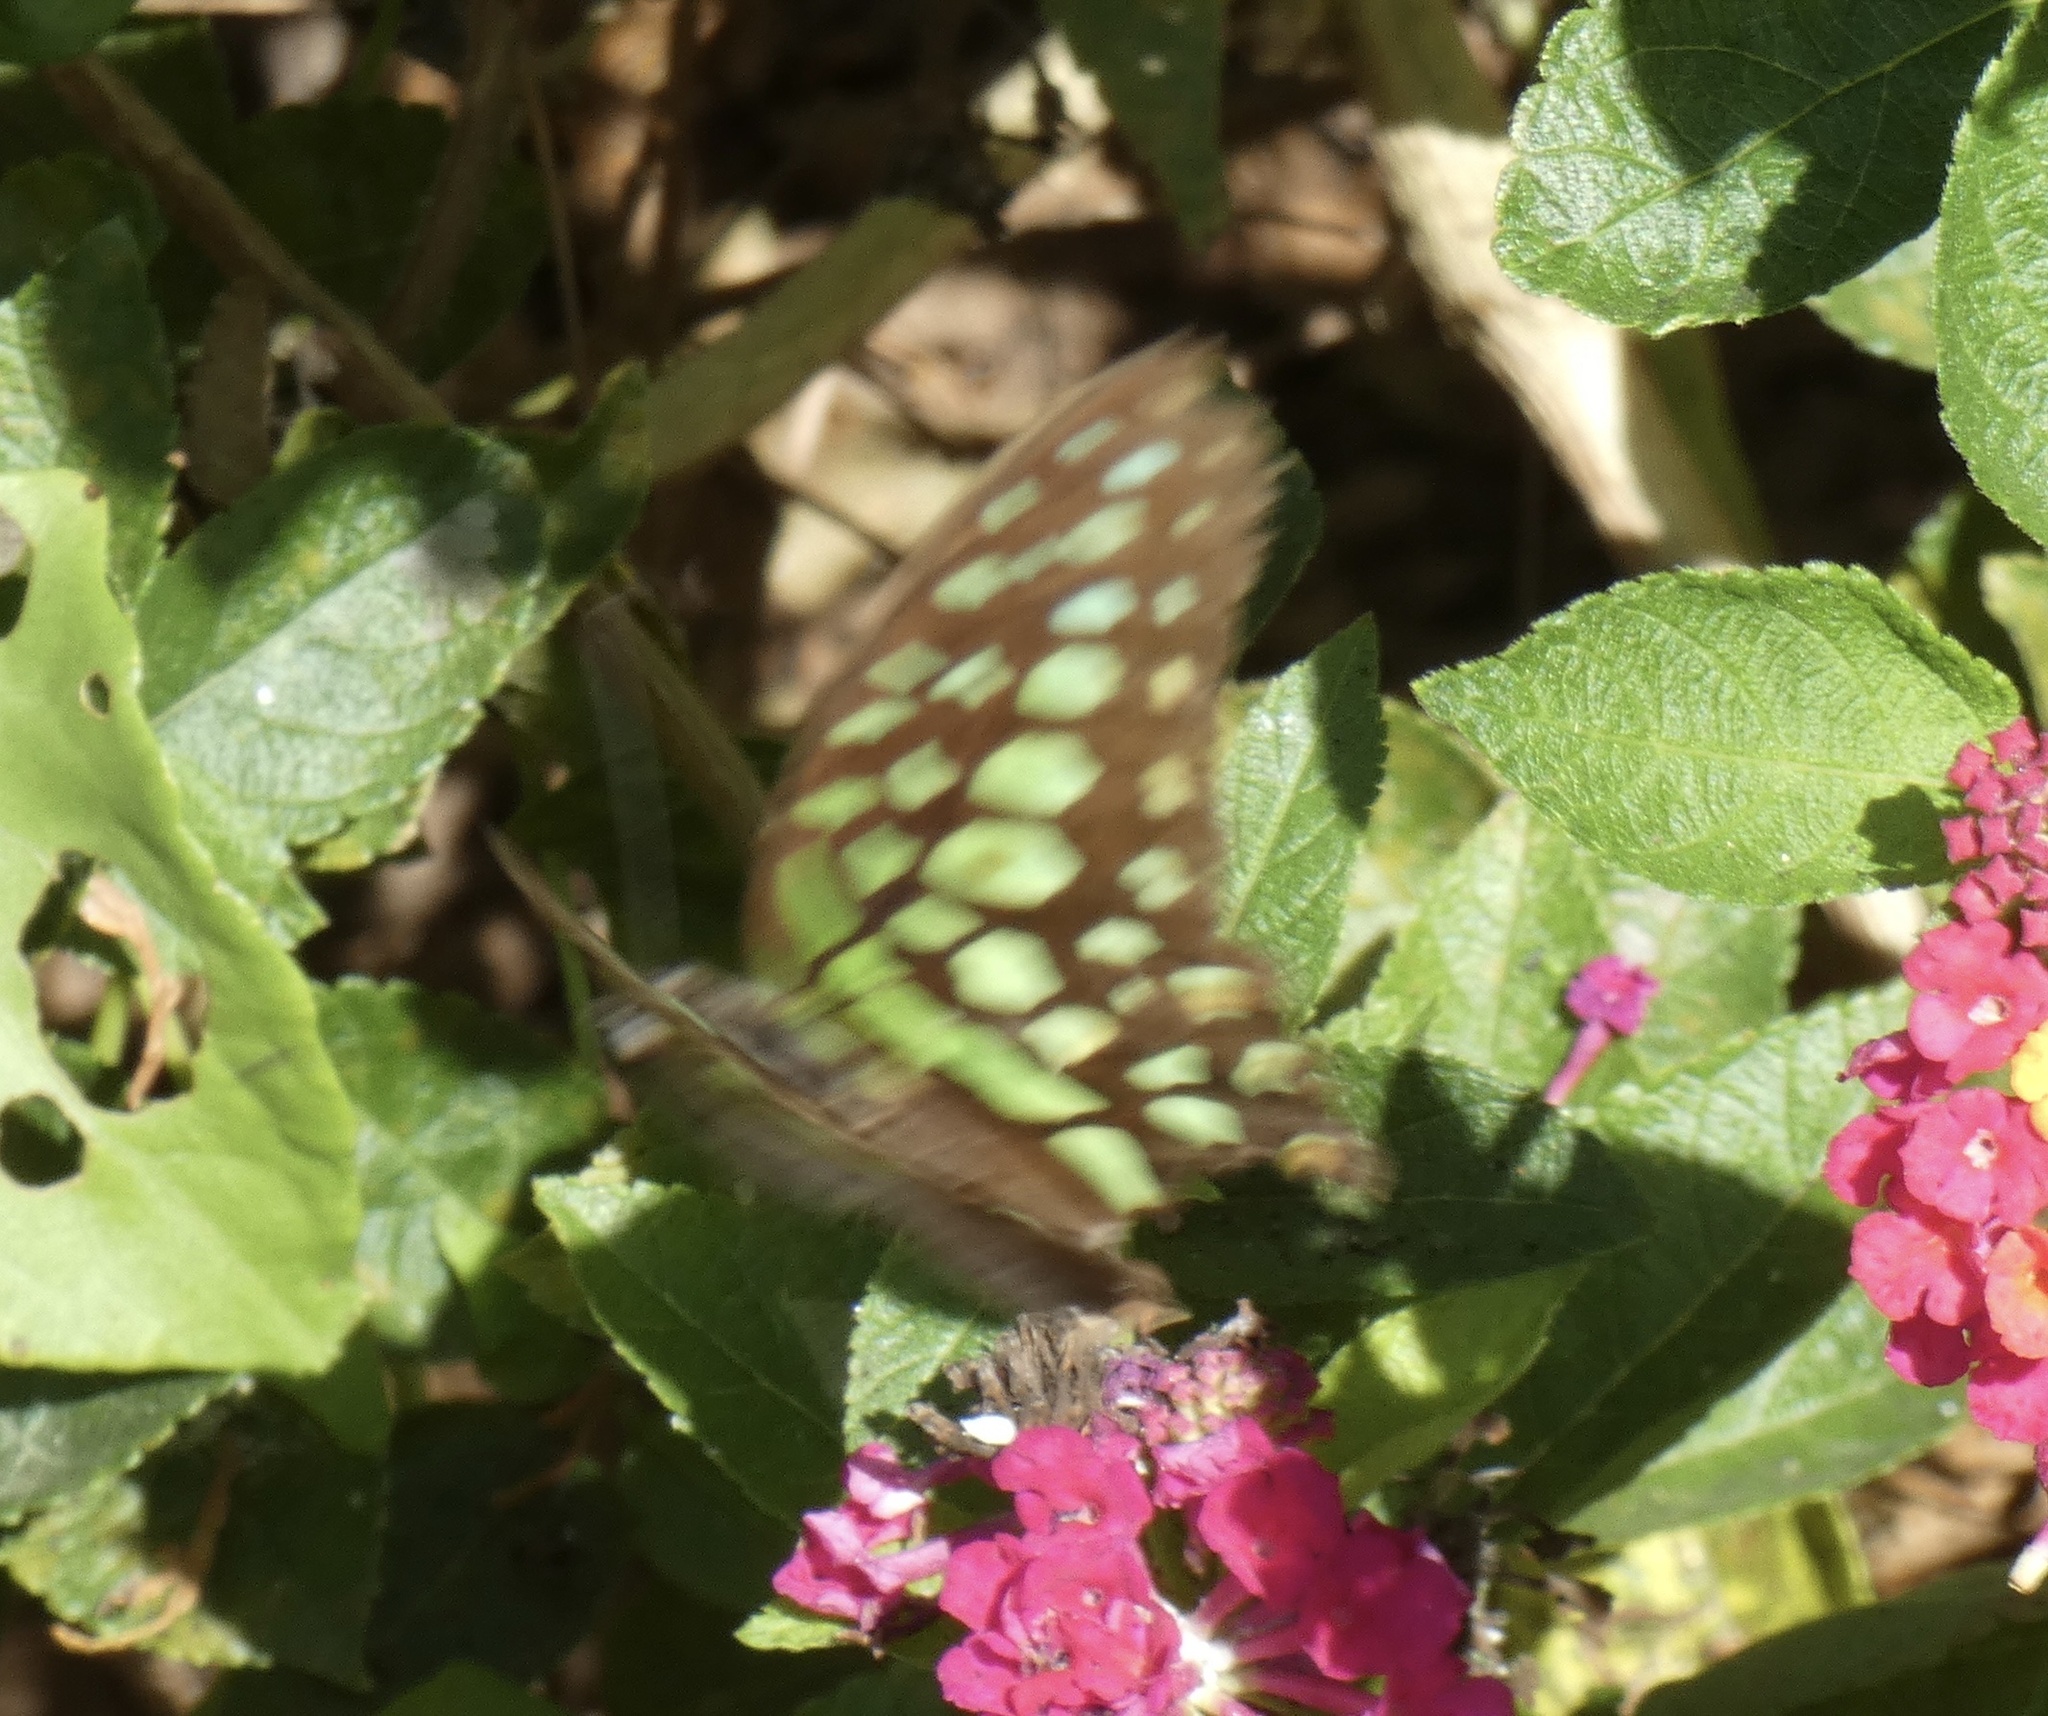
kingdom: Animalia
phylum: Arthropoda
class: Insecta
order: Lepidoptera
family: Papilionidae
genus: Graphium
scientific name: Graphium agamemnon
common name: Tailed jay
